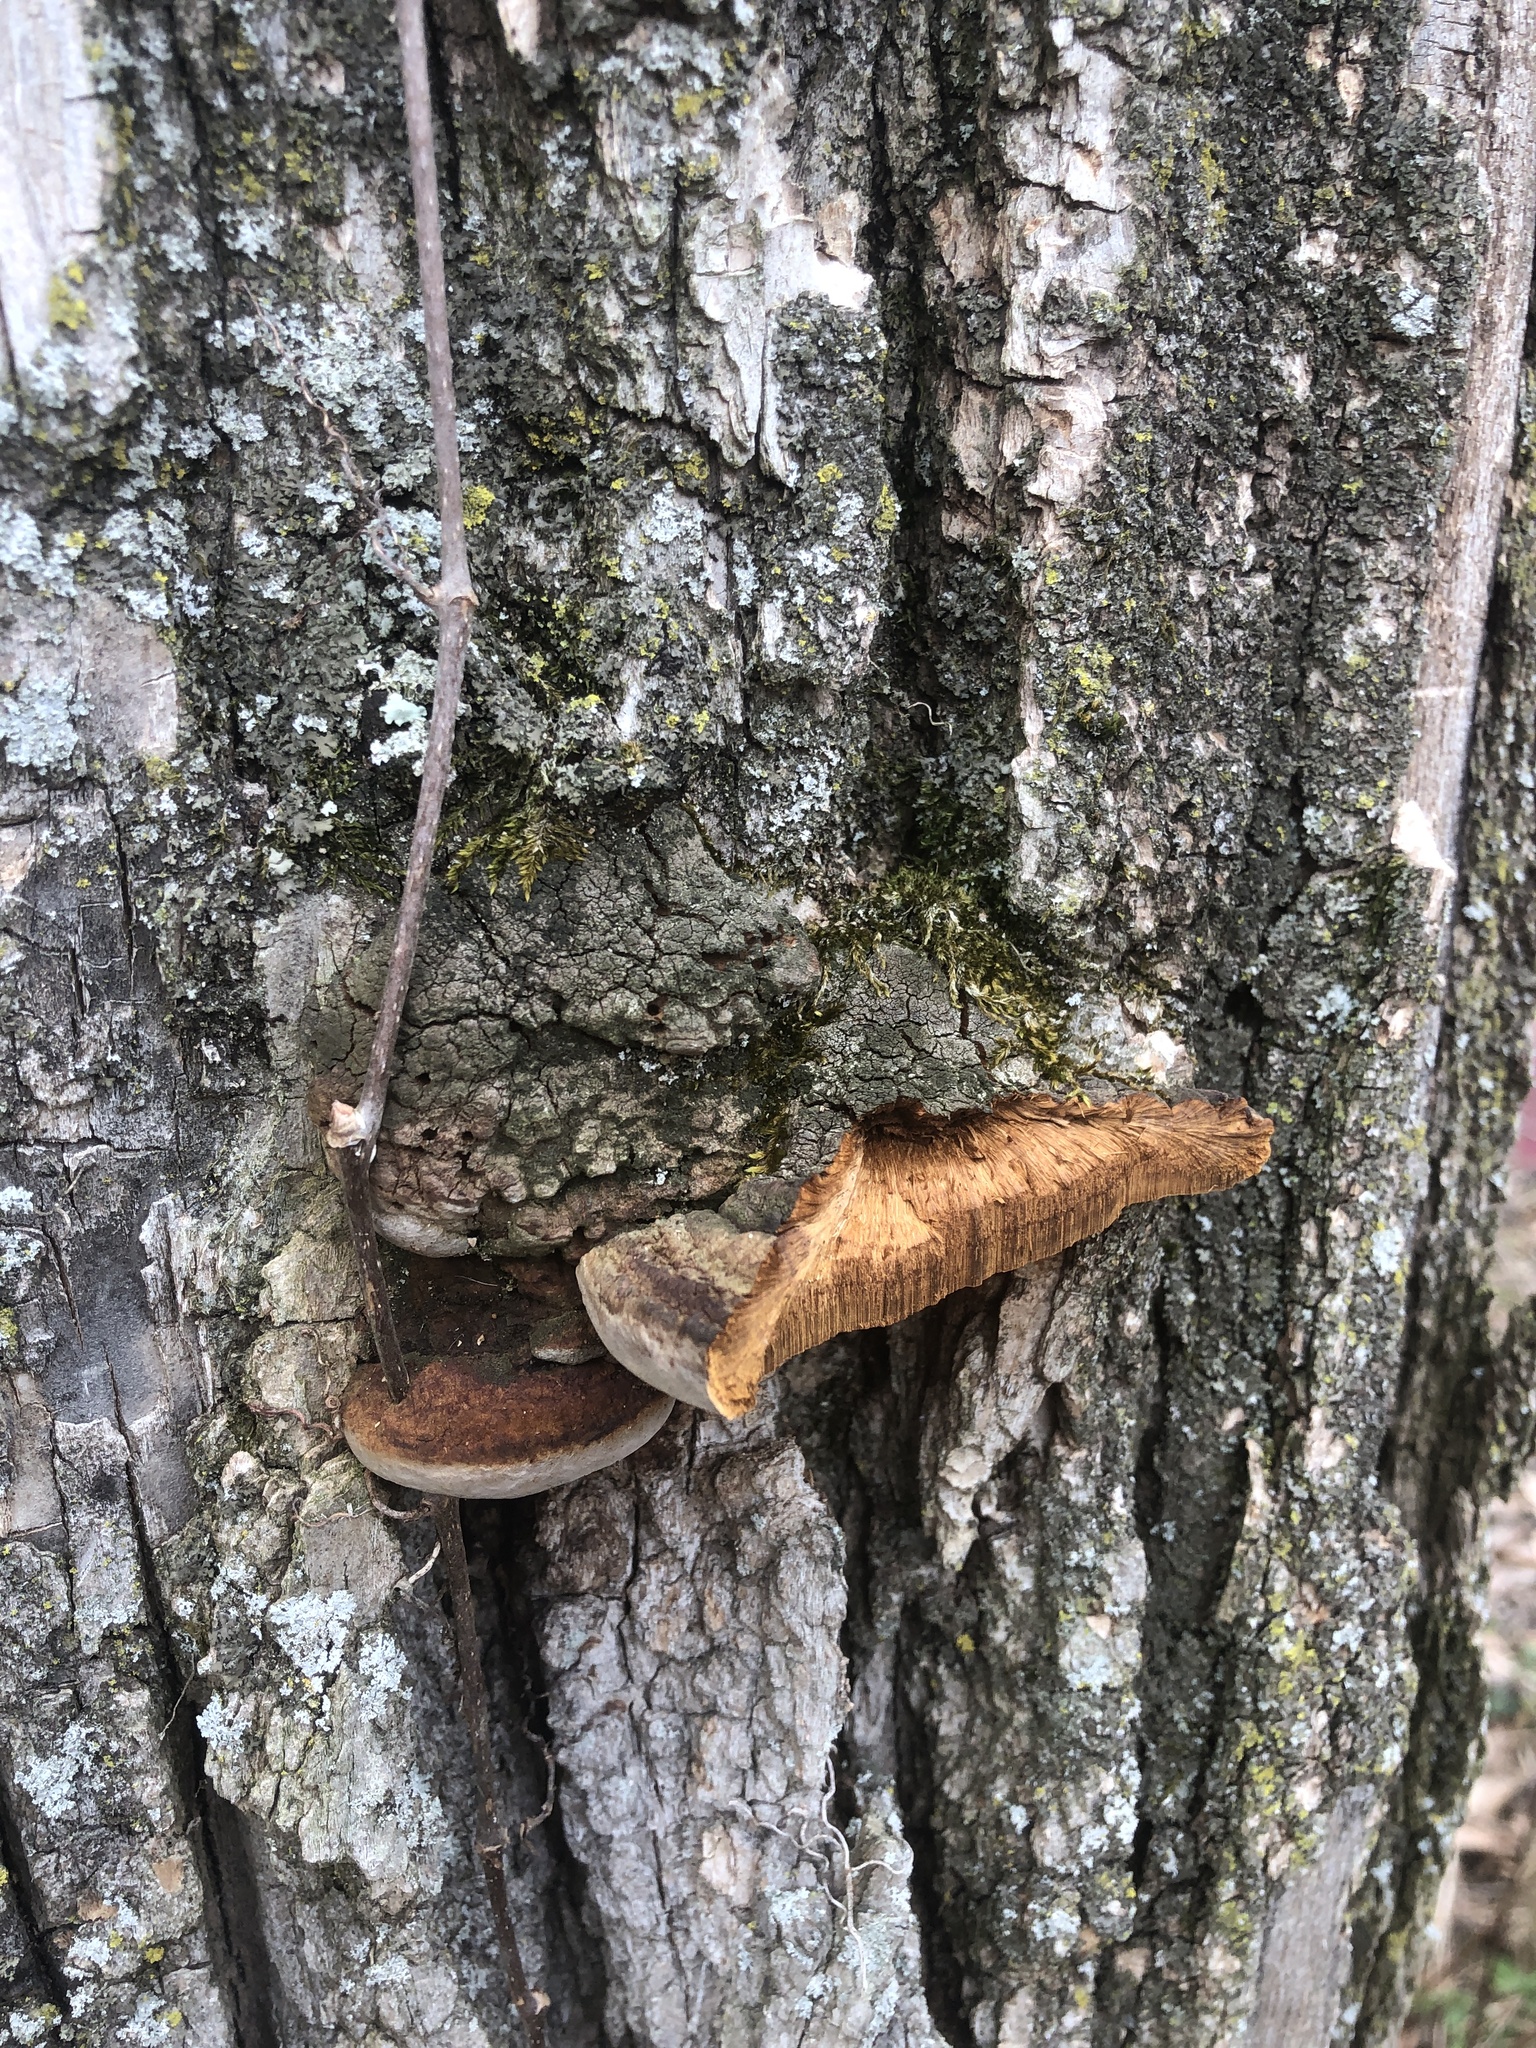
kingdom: Fungi
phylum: Basidiomycota
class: Agaricomycetes
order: Hymenochaetales
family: Hymenochaetaceae
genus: Phellinus
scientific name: Phellinus robiniae
